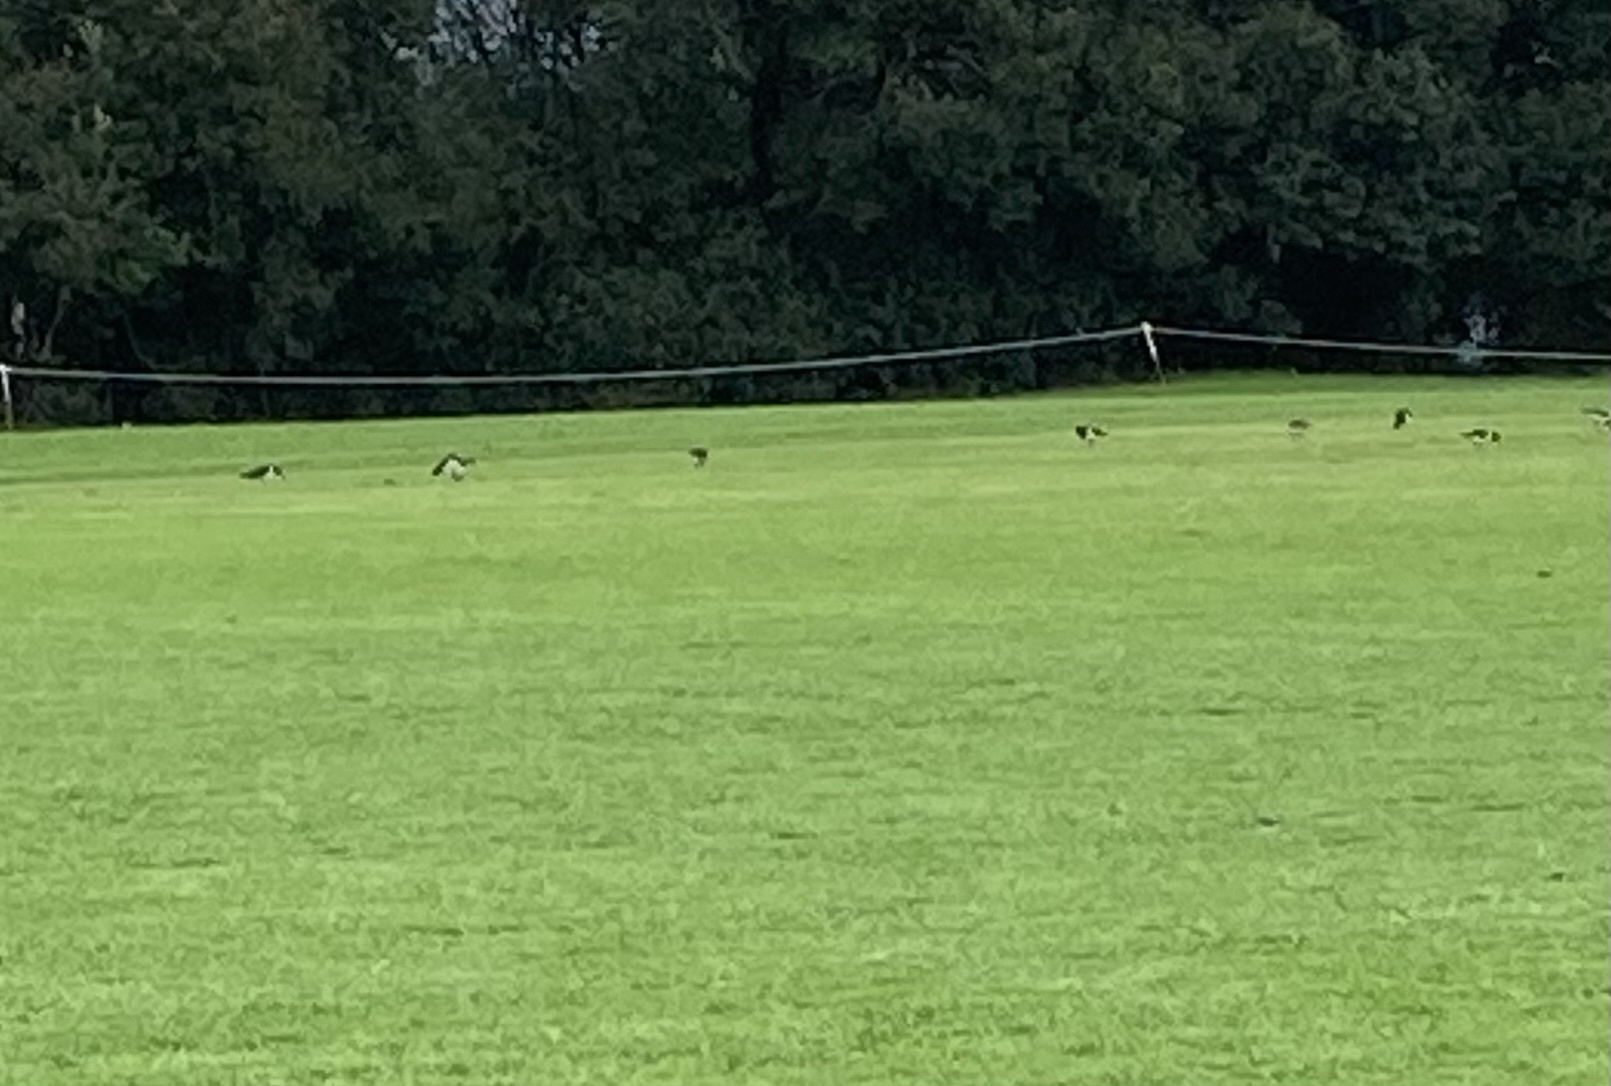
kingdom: Animalia
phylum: Chordata
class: Aves
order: Charadriiformes
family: Haematopodidae
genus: Haematopus
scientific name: Haematopus finschi
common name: South island oystercatcher
